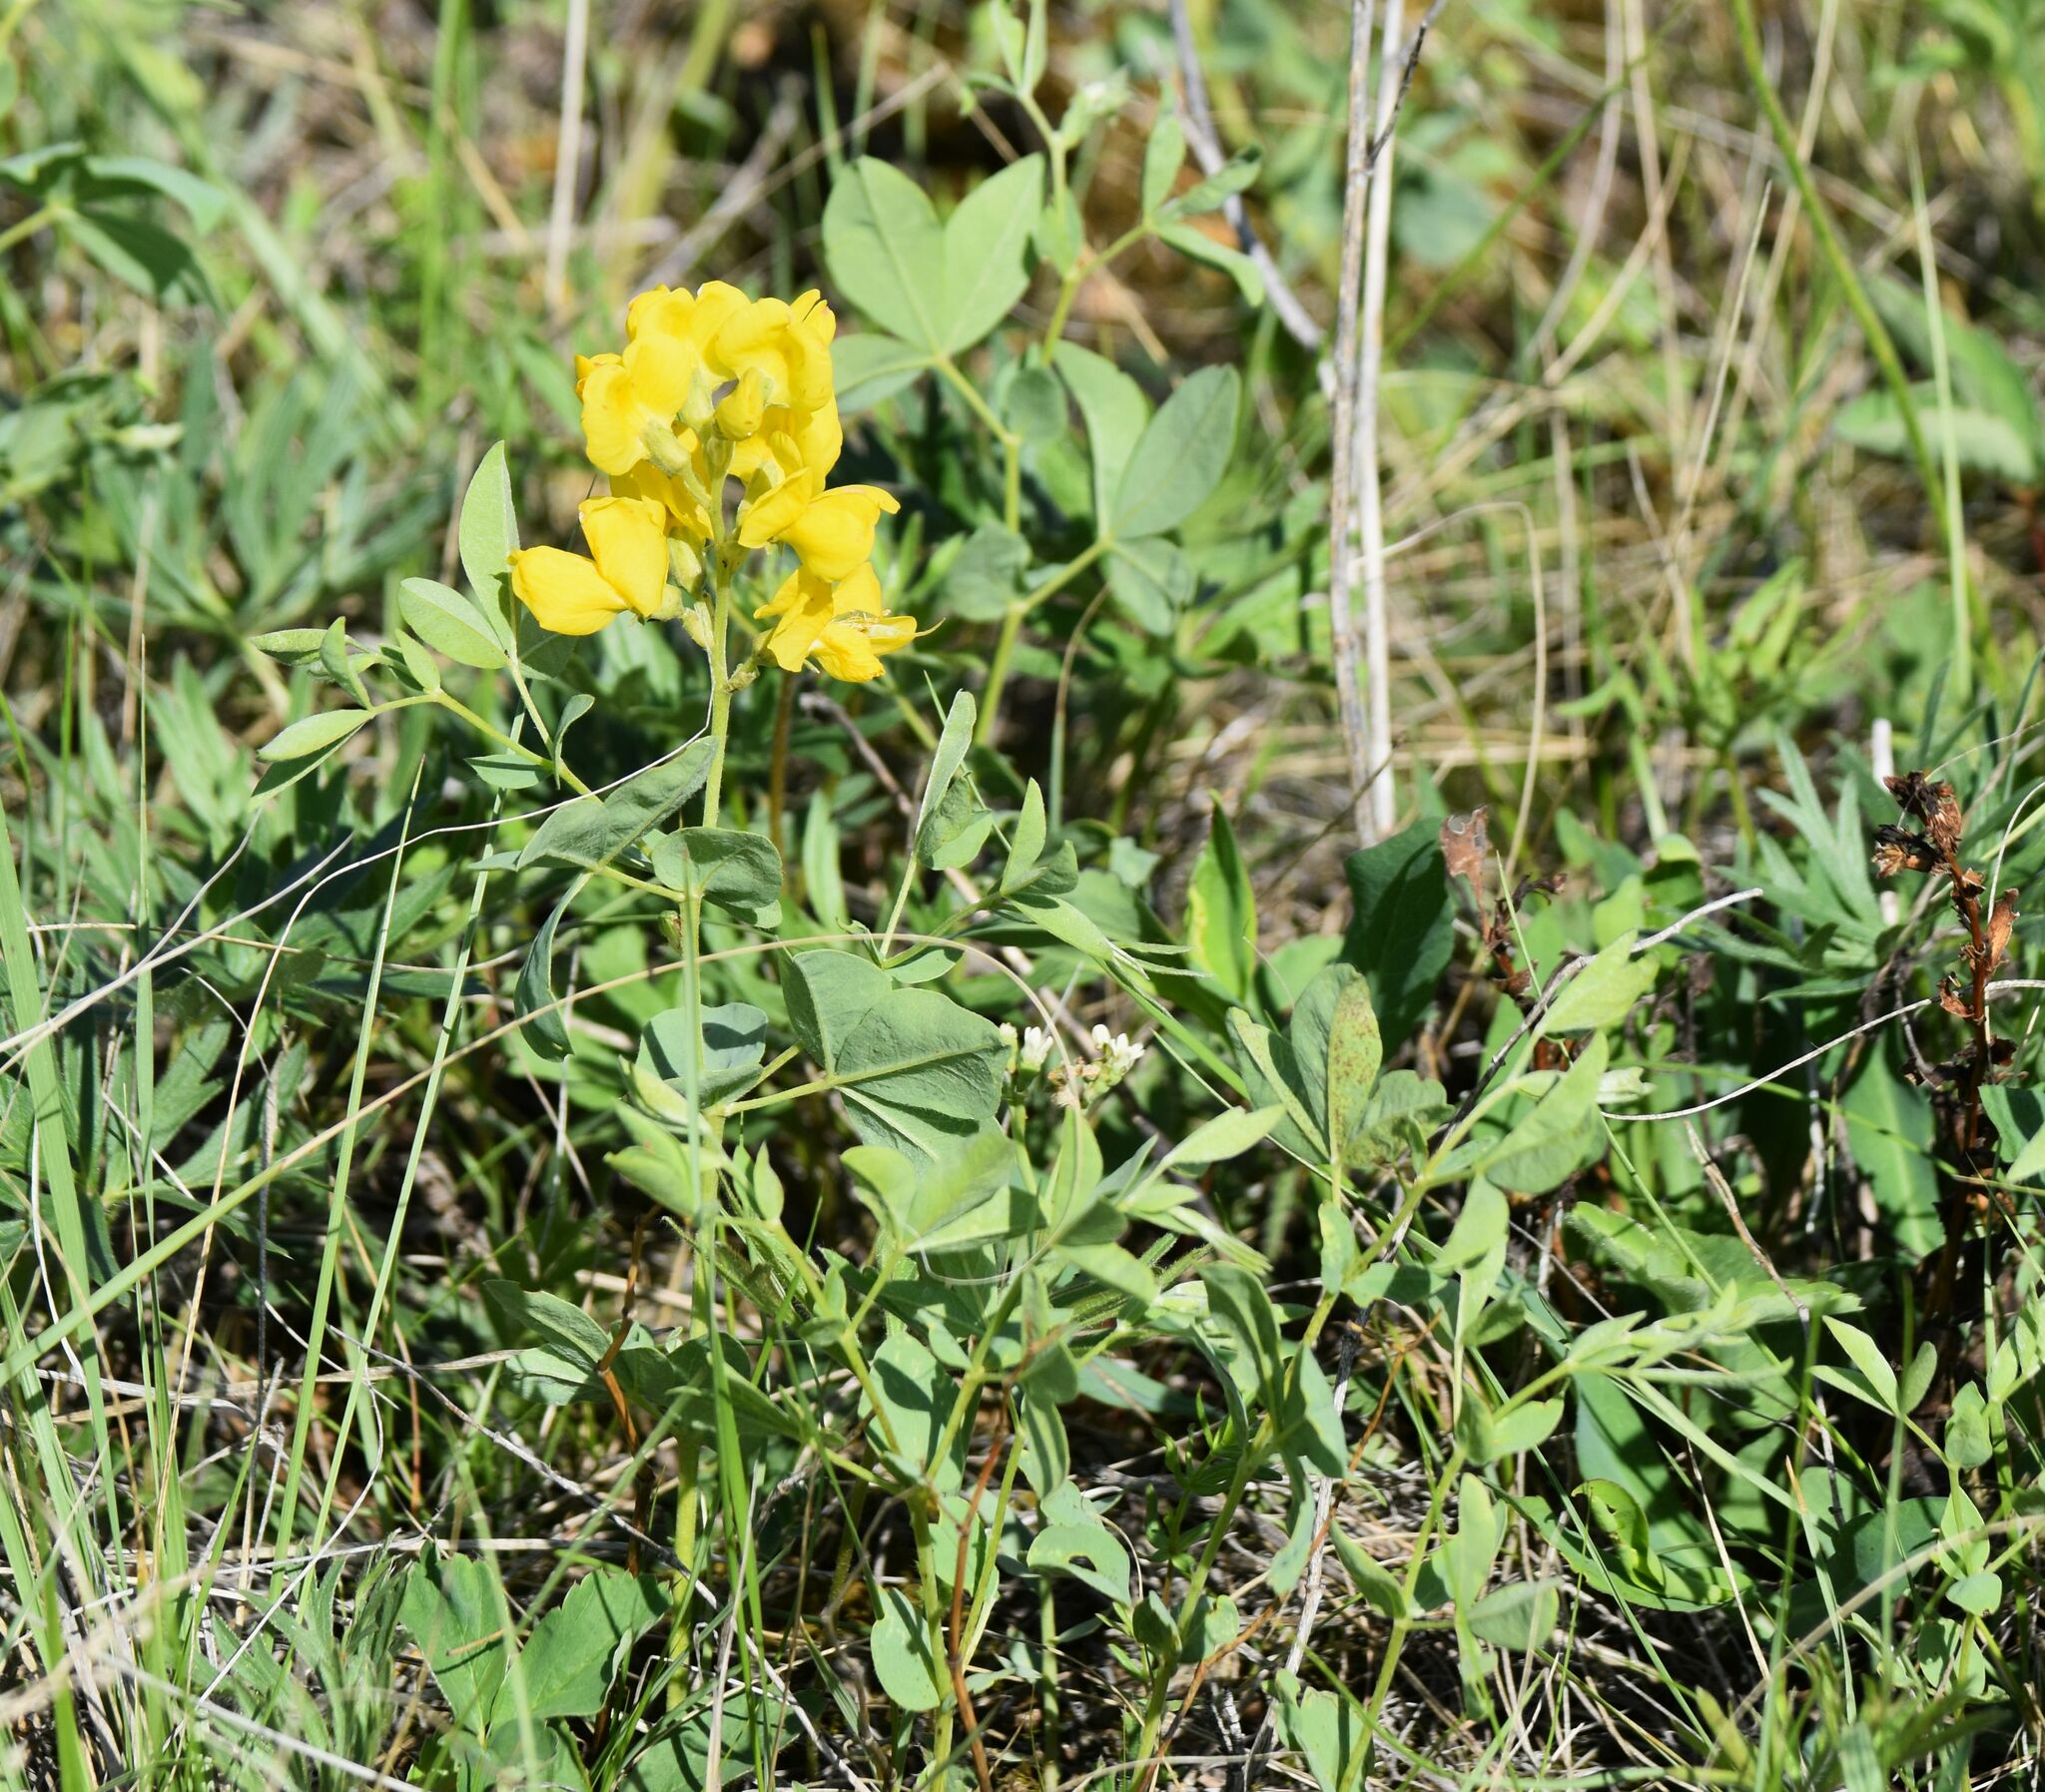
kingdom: Plantae
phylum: Tracheophyta
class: Magnoliopsida
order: Fabales
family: Fabaceae
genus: Thermopsis
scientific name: Thermopsis rhombifolia
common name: Circle-pod-pea
